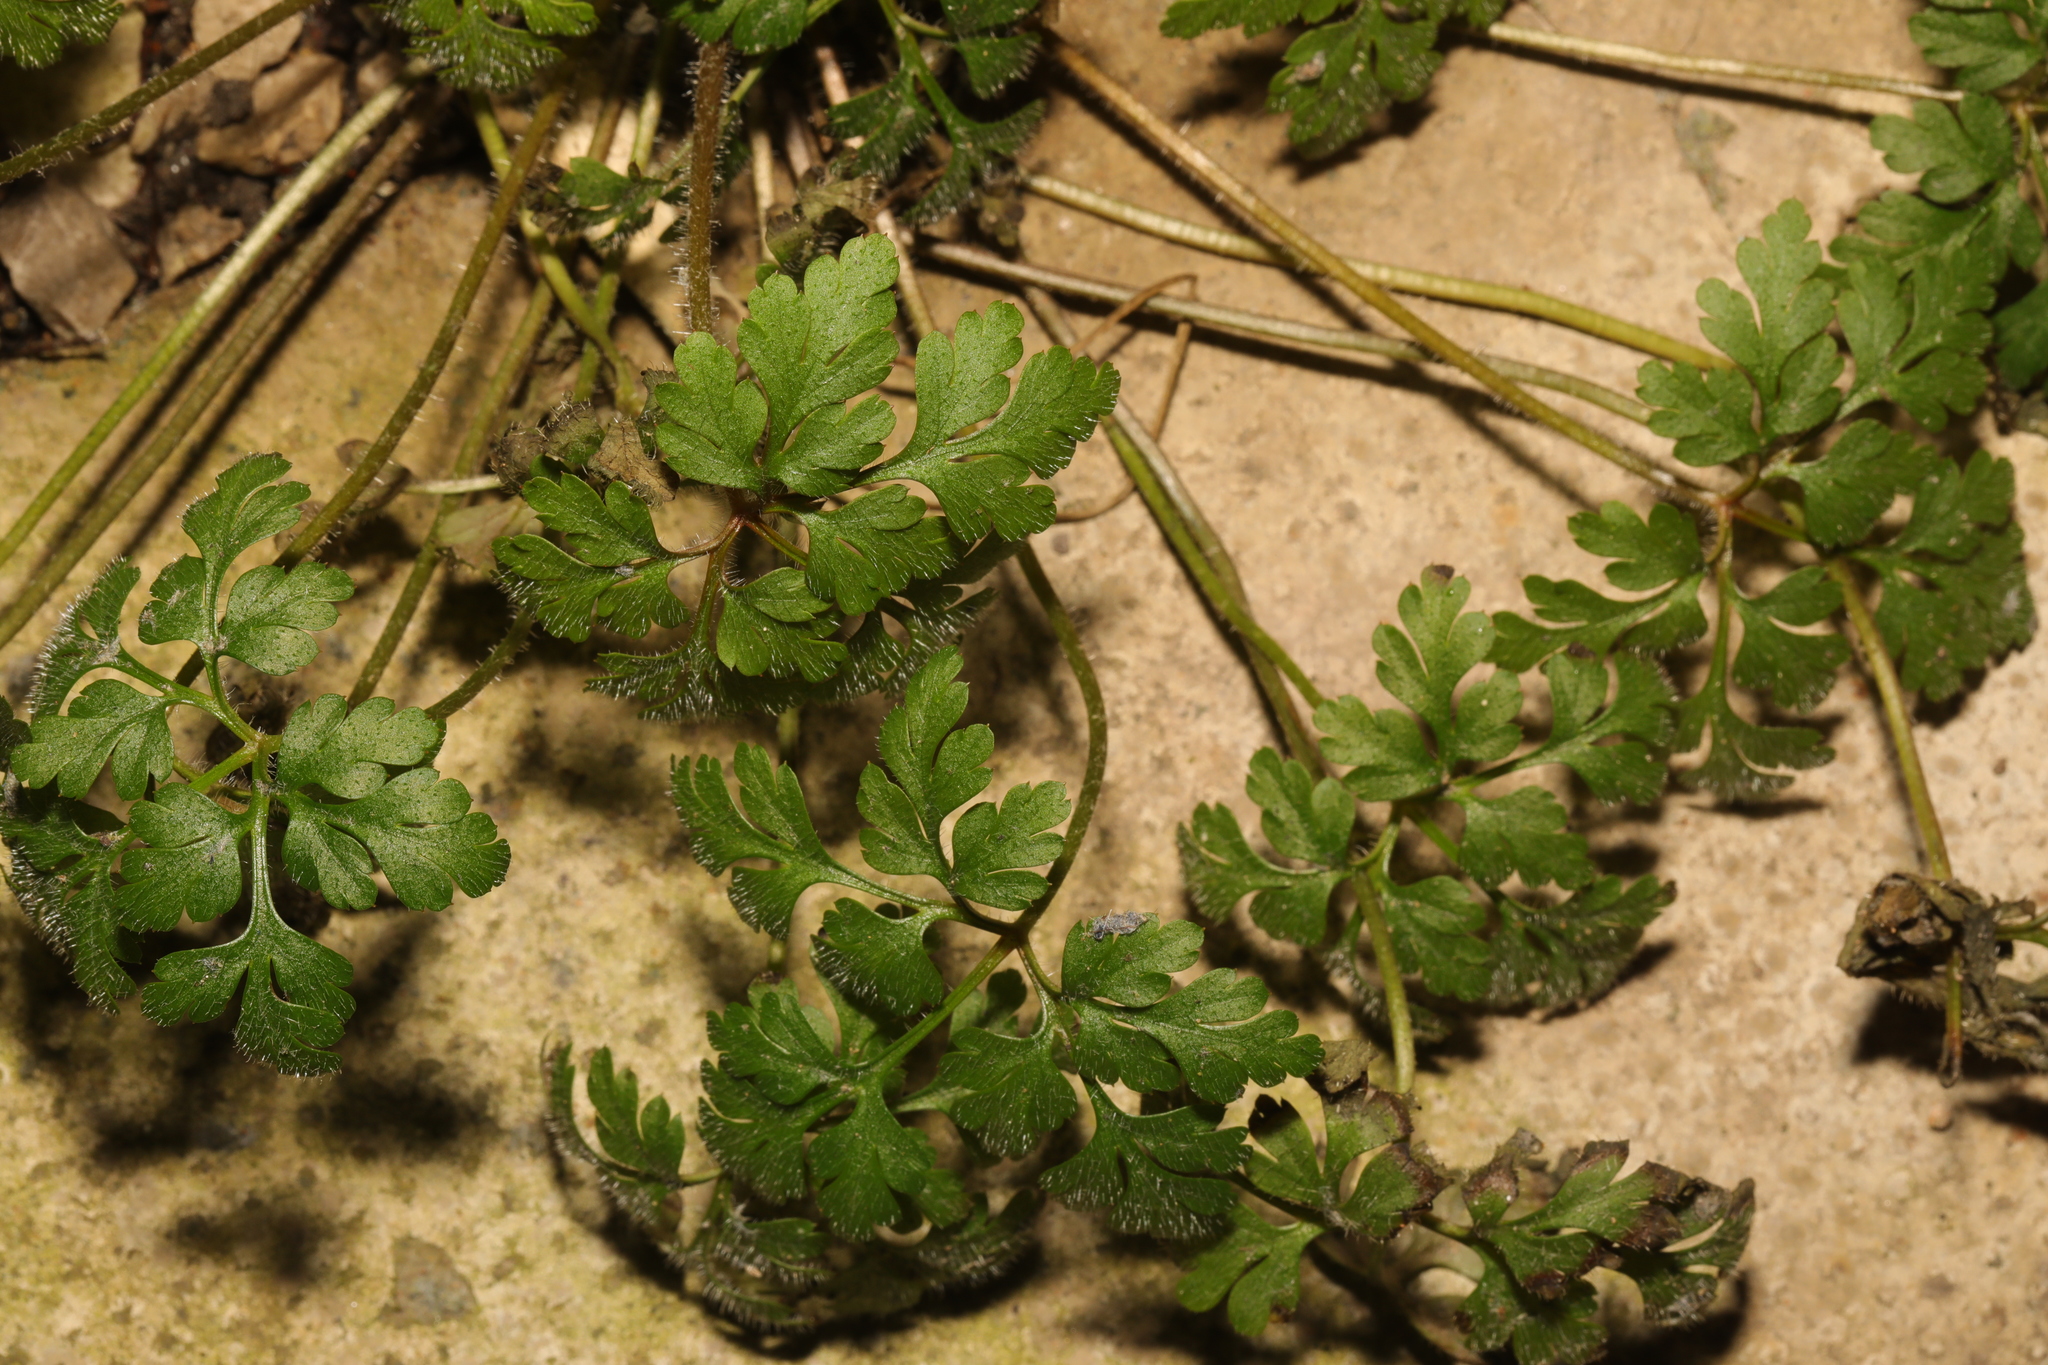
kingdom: Plantae
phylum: Tracheophyta
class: Magnoliopsida
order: Geraniales
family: Geraniaceae
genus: Geranium
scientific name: Geranium robertianum
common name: Herb-robert
